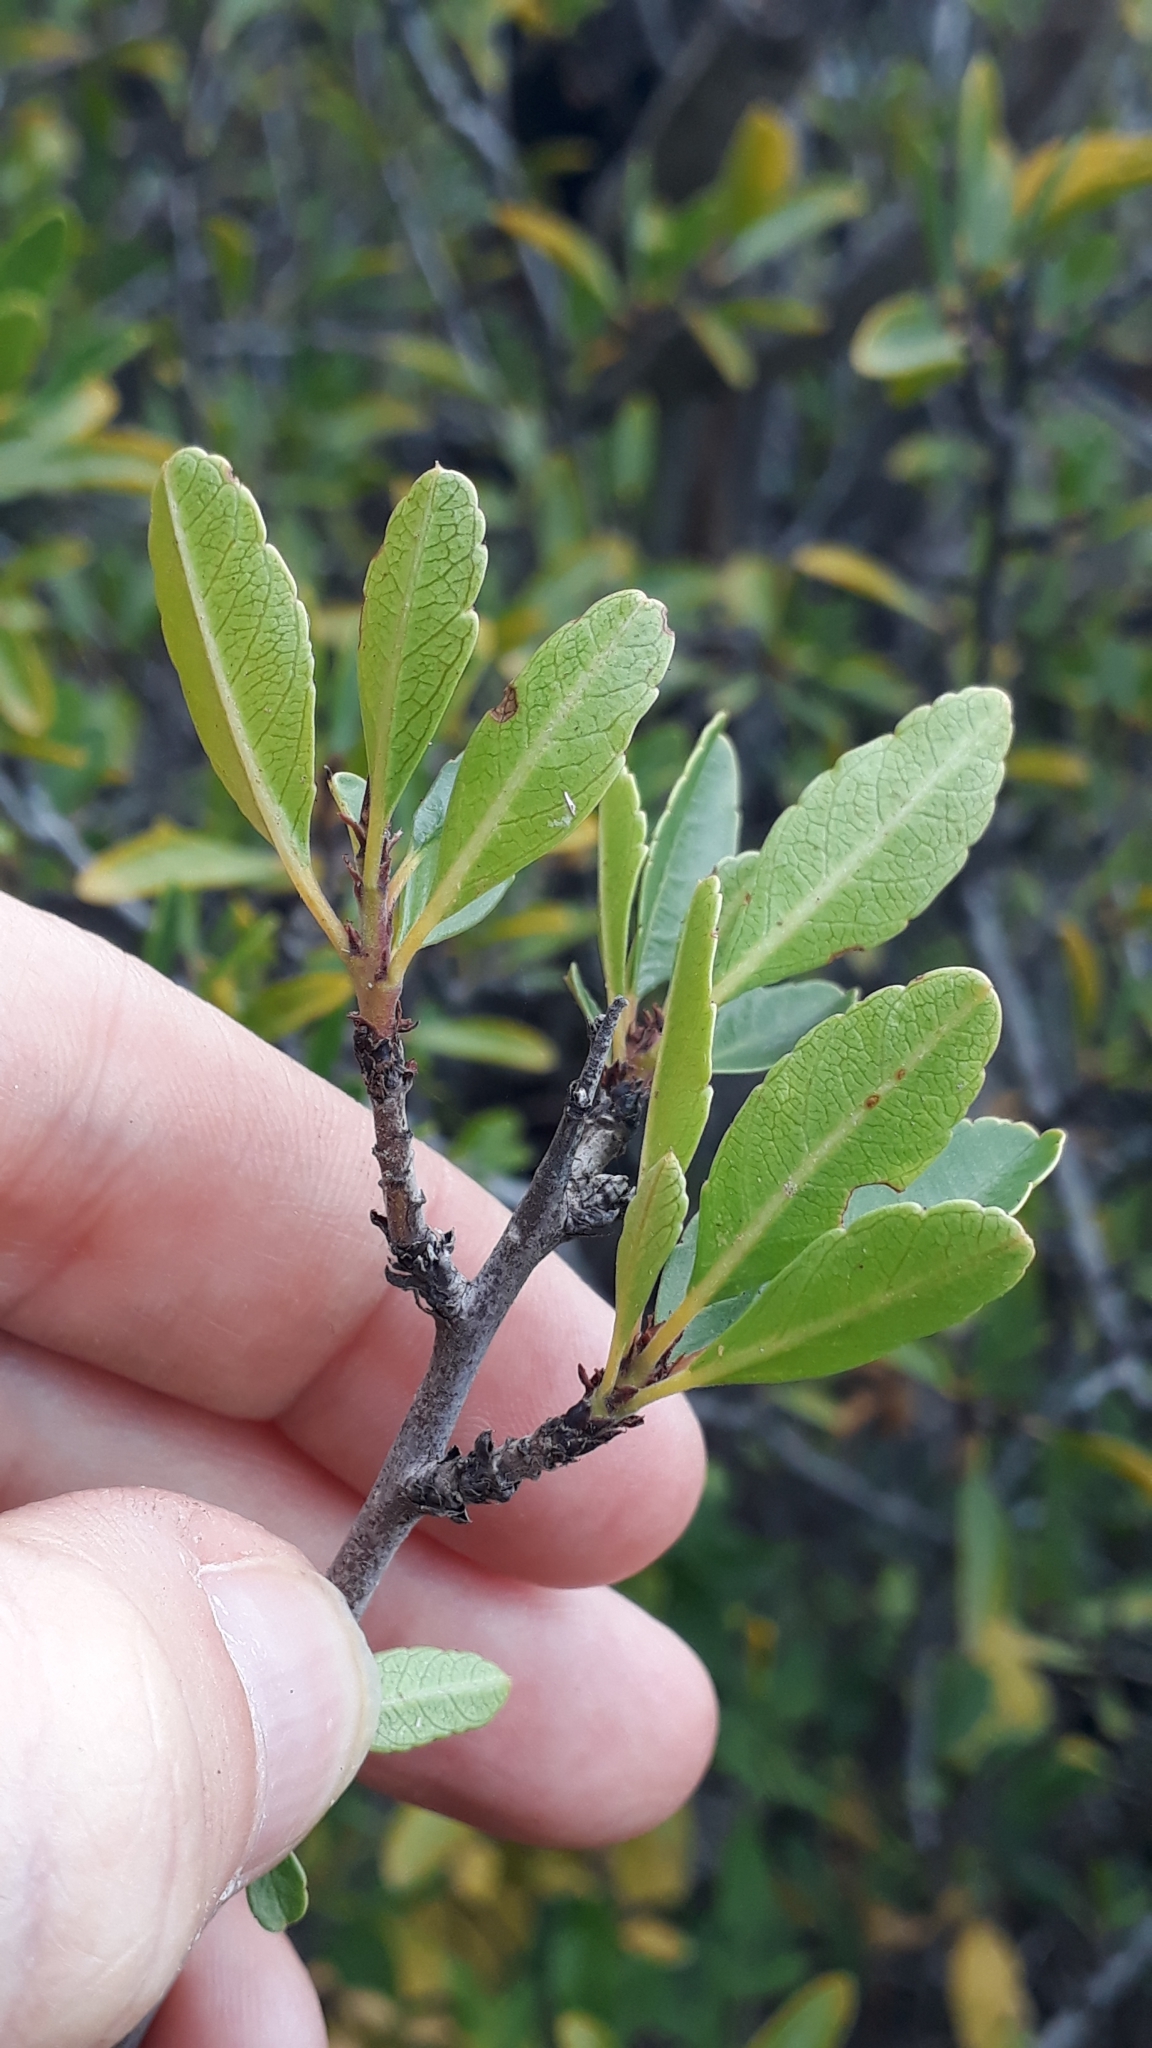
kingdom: Plantae
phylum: Tracheophyta
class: Magnoliopsida
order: Rosales
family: Rhamnaceae
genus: Rhamnus
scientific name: Rhamnus crenulata
